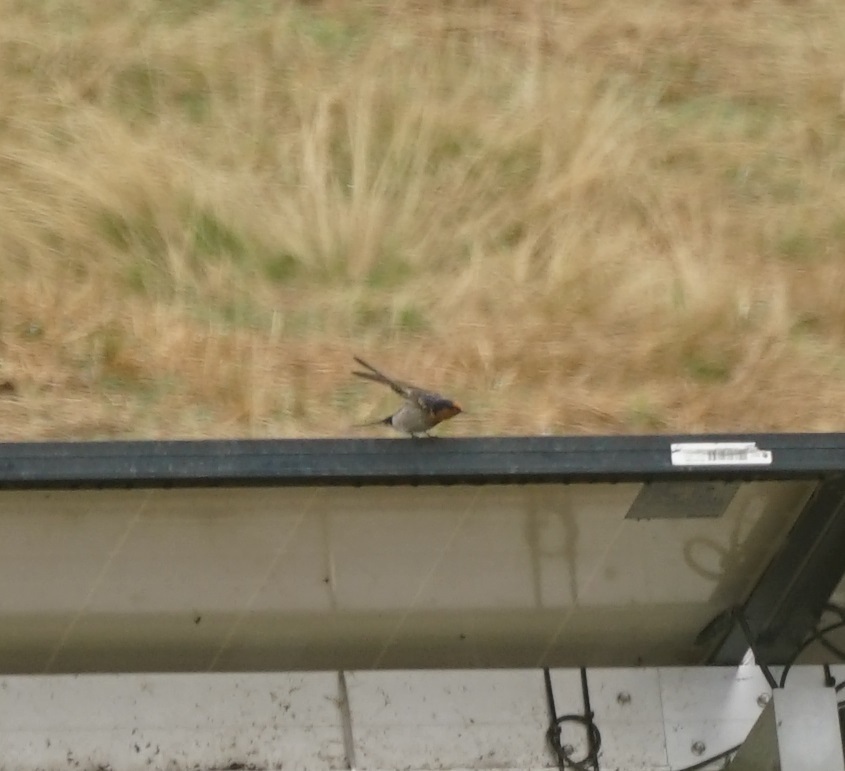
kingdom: Animalia
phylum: Chordata
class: Aves
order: Passeriformes
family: Hirundinidae
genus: Hirundo
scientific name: Hirundo neoxena
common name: Welcome swallow
